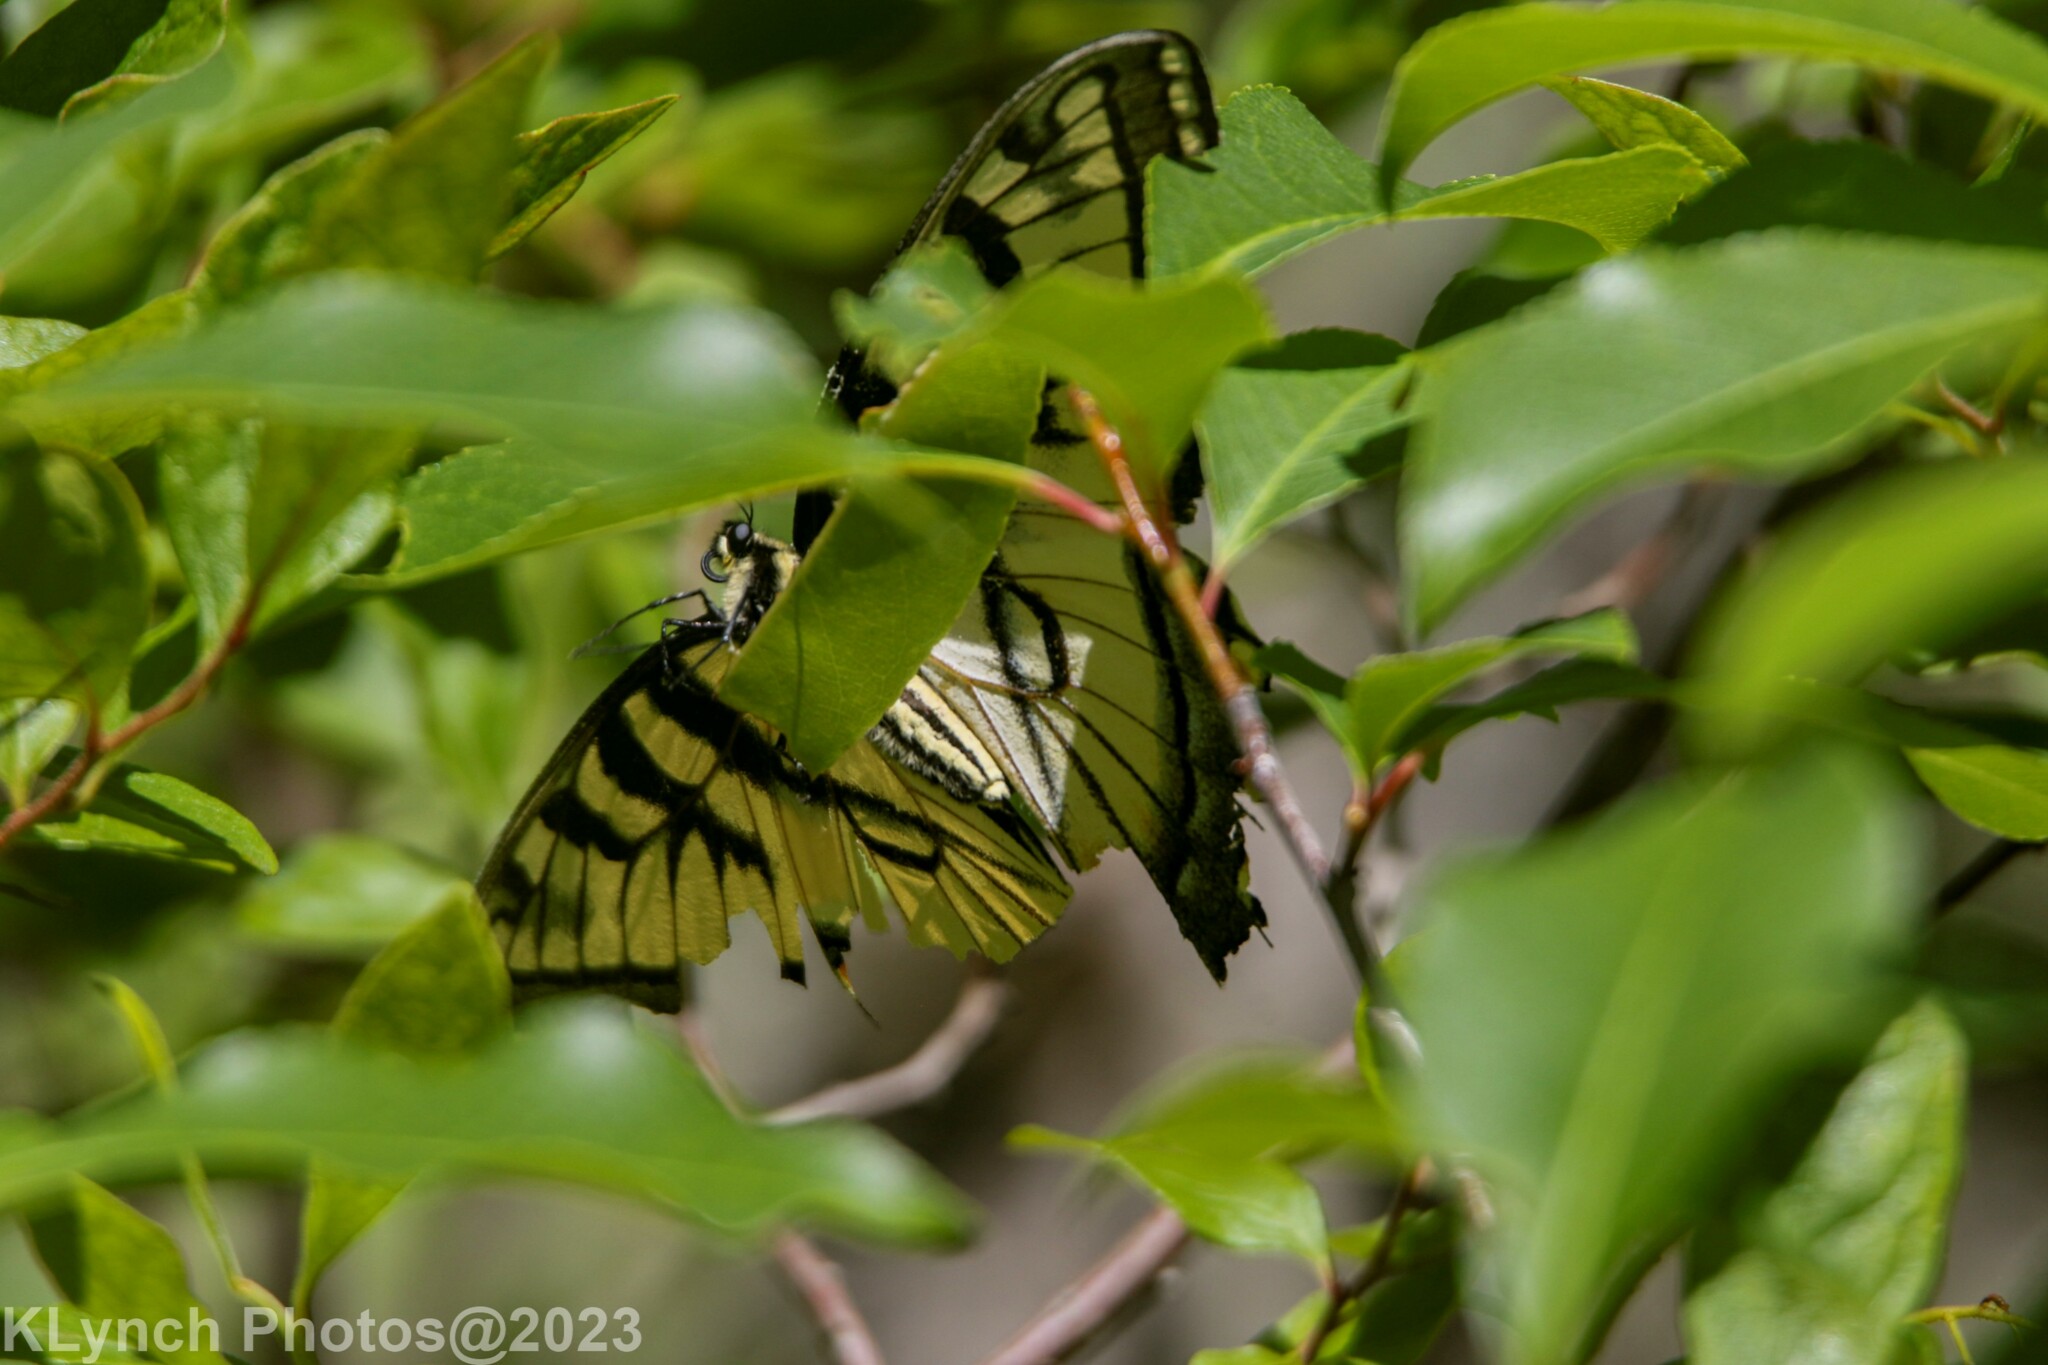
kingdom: Animalia
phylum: Arthropoda
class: Insecta
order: Lepidoptera
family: Papilionidae
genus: Papilio
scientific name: Papilio glaucus
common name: Tiger swallowtail
